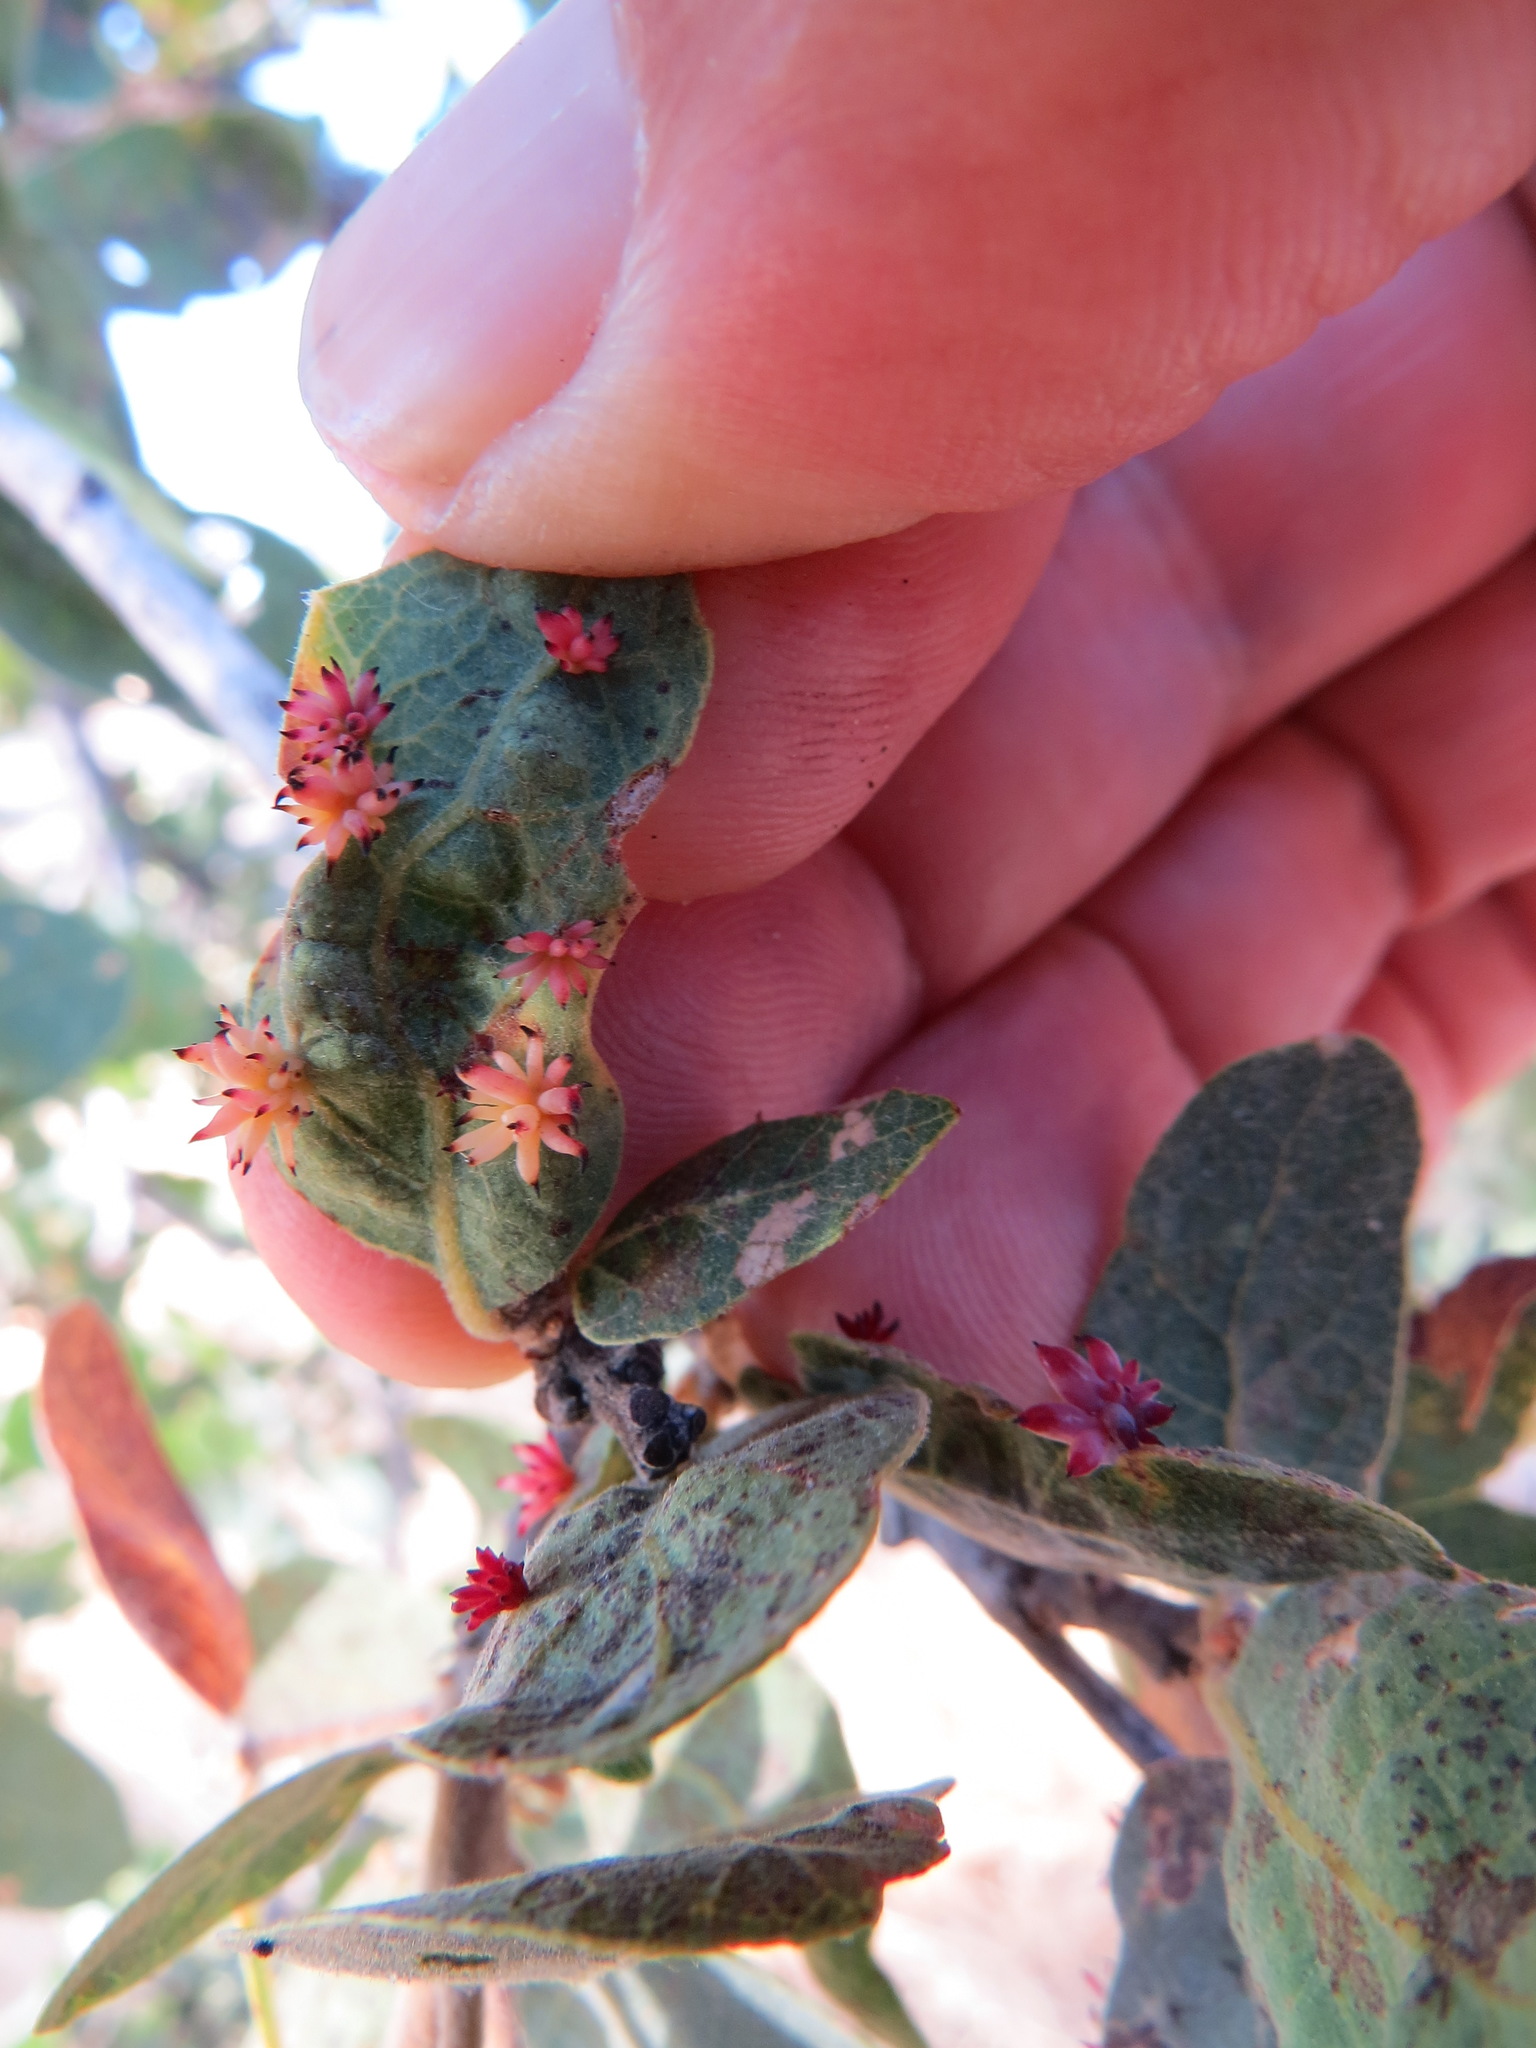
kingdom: Animalia
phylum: Arthropoda
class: Insecta
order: Hymenoptera
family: Cynipidae
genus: Cynips
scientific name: Cynips
